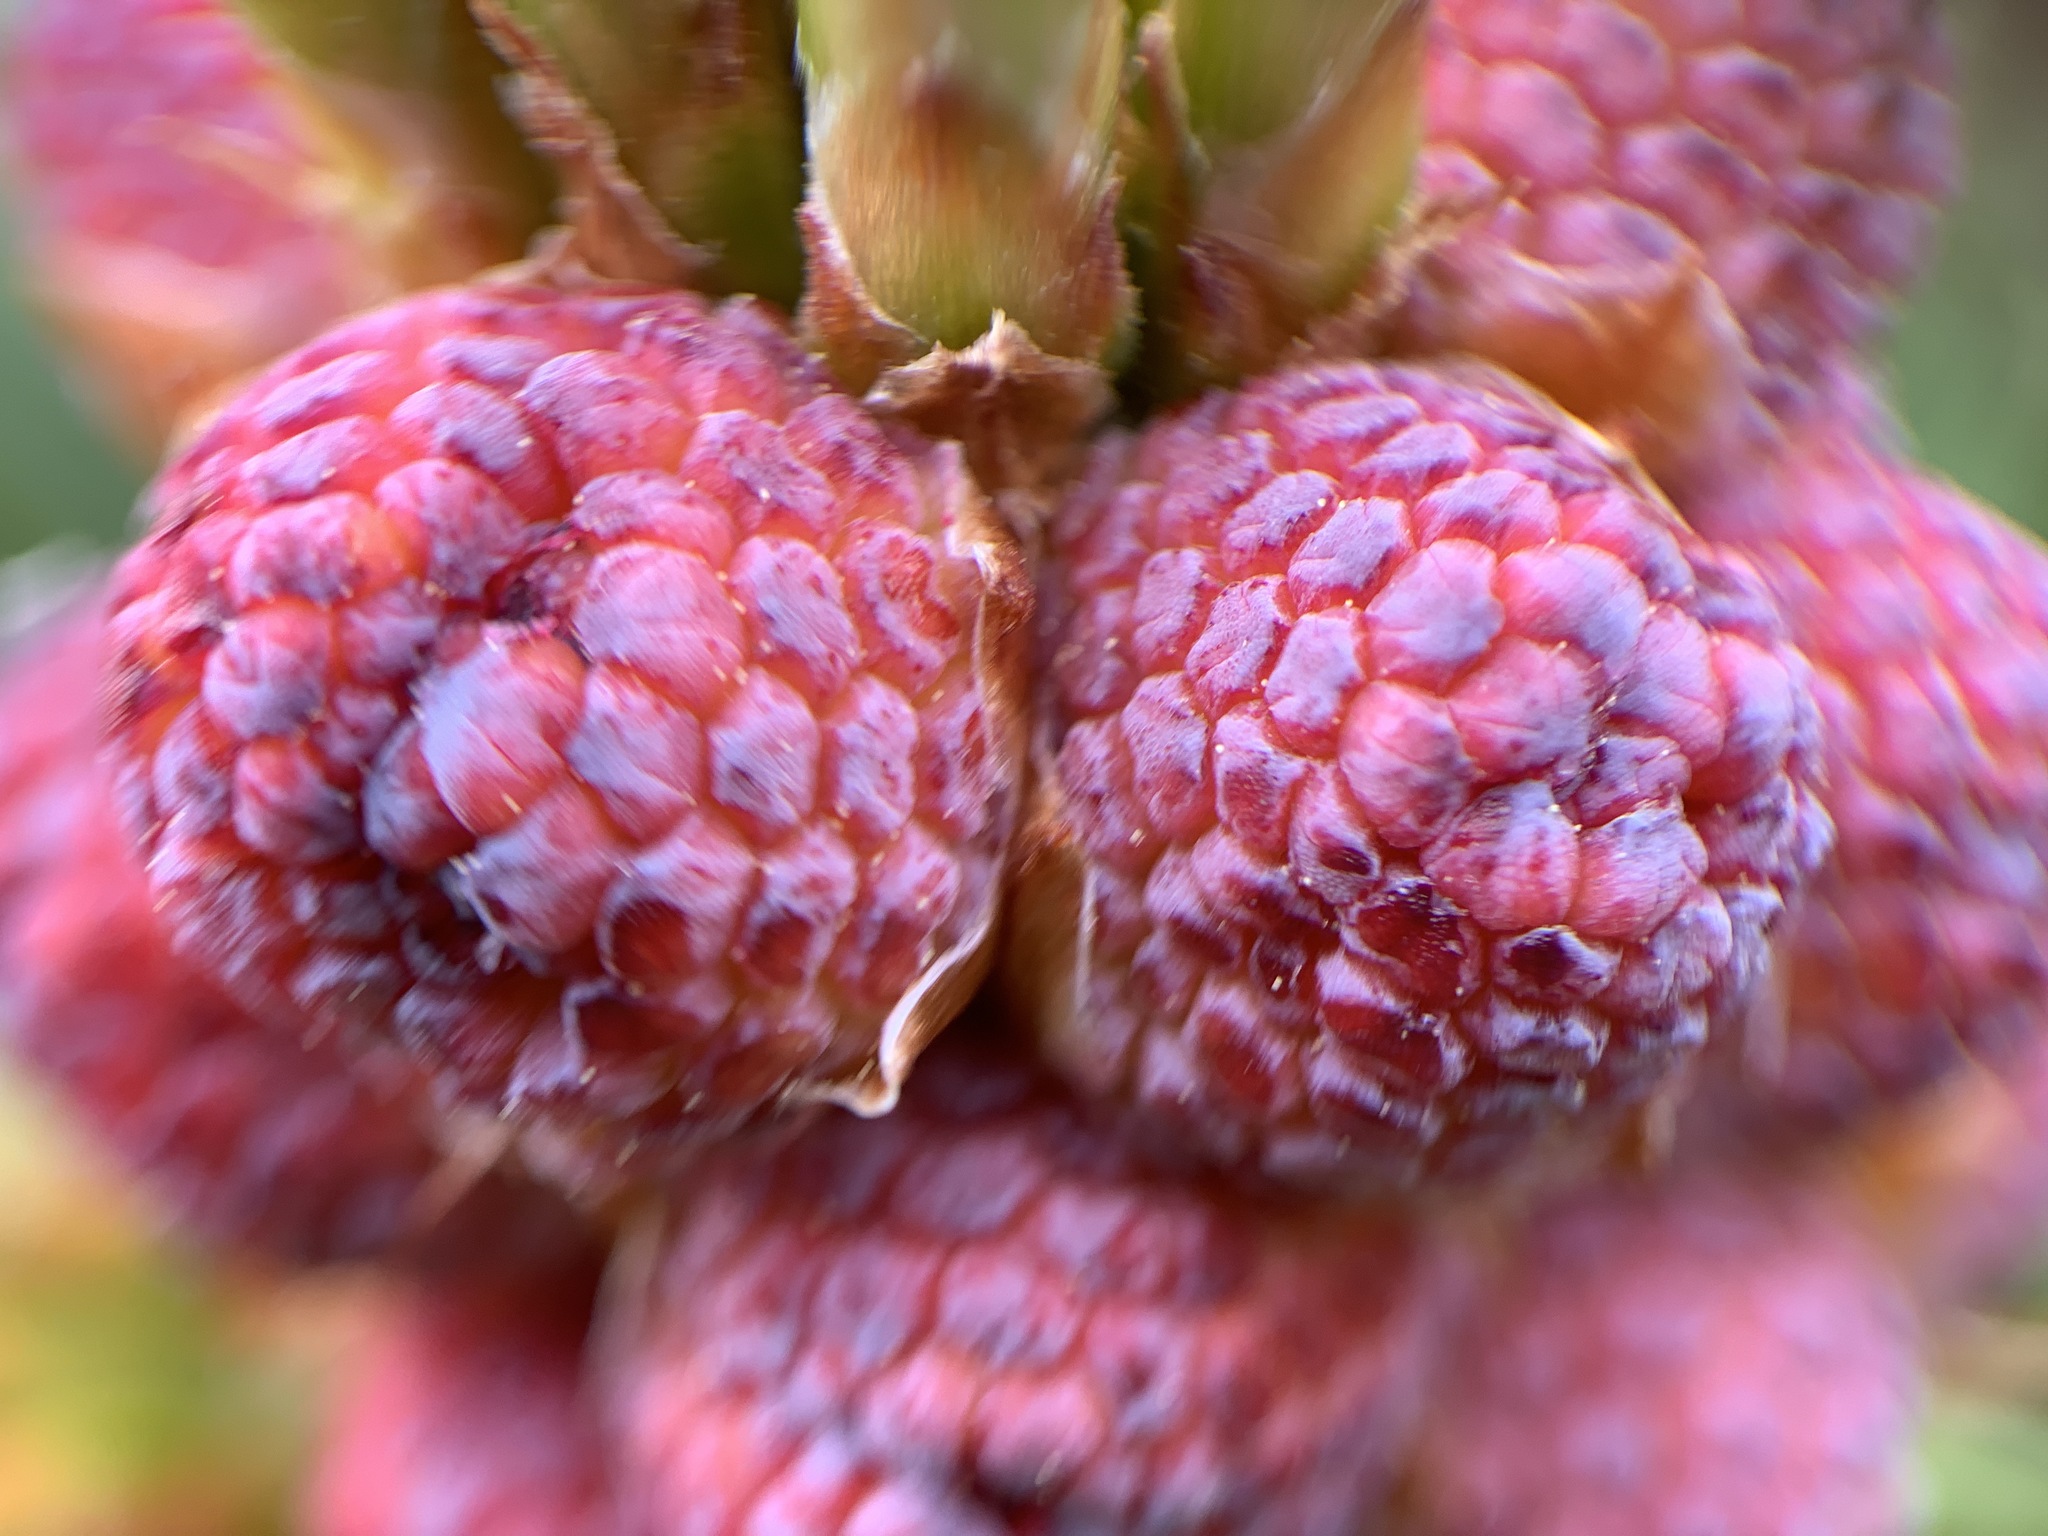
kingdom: Plantae
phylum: Tracheophyta
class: Pinopsida
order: Pinales
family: Pinaceae
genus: Abies
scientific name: Abies lasiocarpa
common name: Subalpine fir
